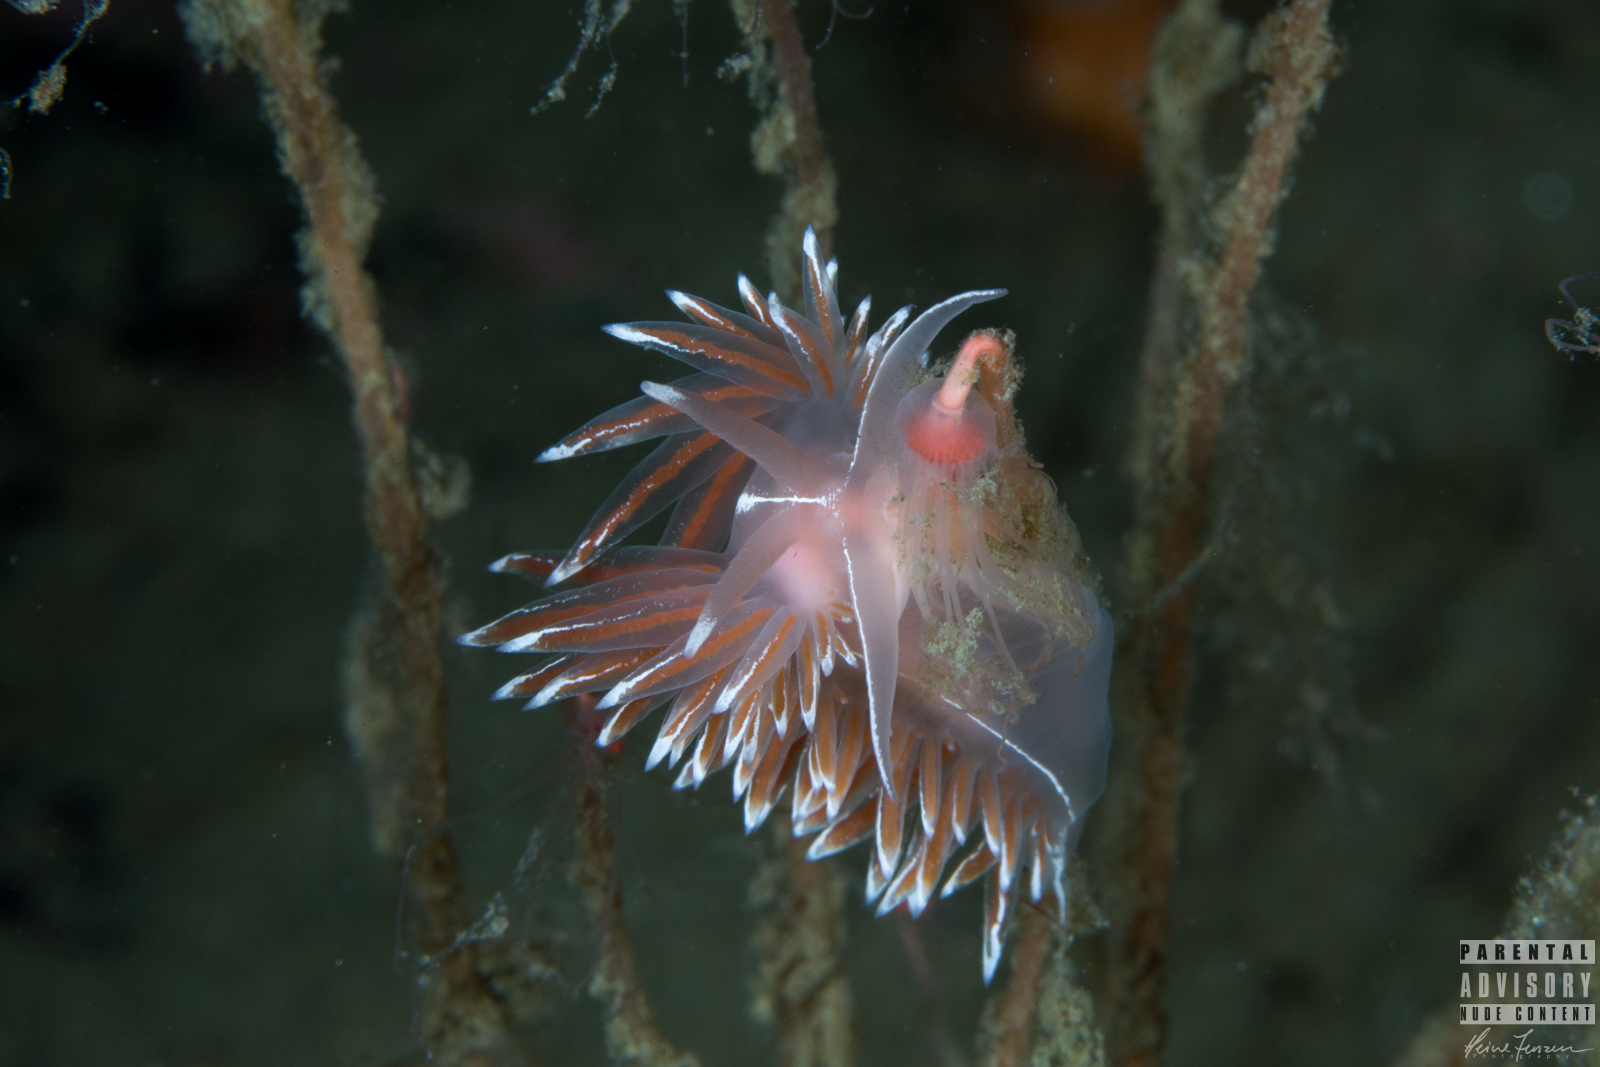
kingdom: Animalia
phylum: Mollusca
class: Gastropoda
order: Nudibranchia
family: Coryphellidae
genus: Coryphella
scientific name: Coryphella lineata
